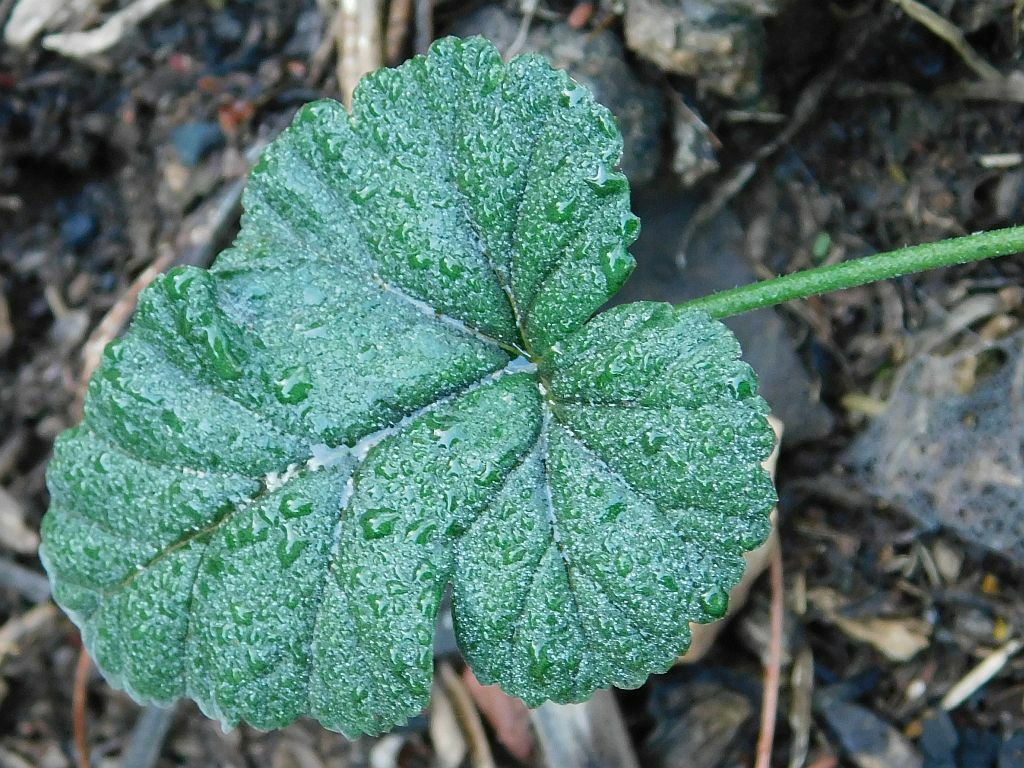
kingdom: Plantae
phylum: Tracheophyta
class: Magnoliopsida
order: Geraniales
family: Geraniaceae
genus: Pelargonium
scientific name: Pelargonium candicans
